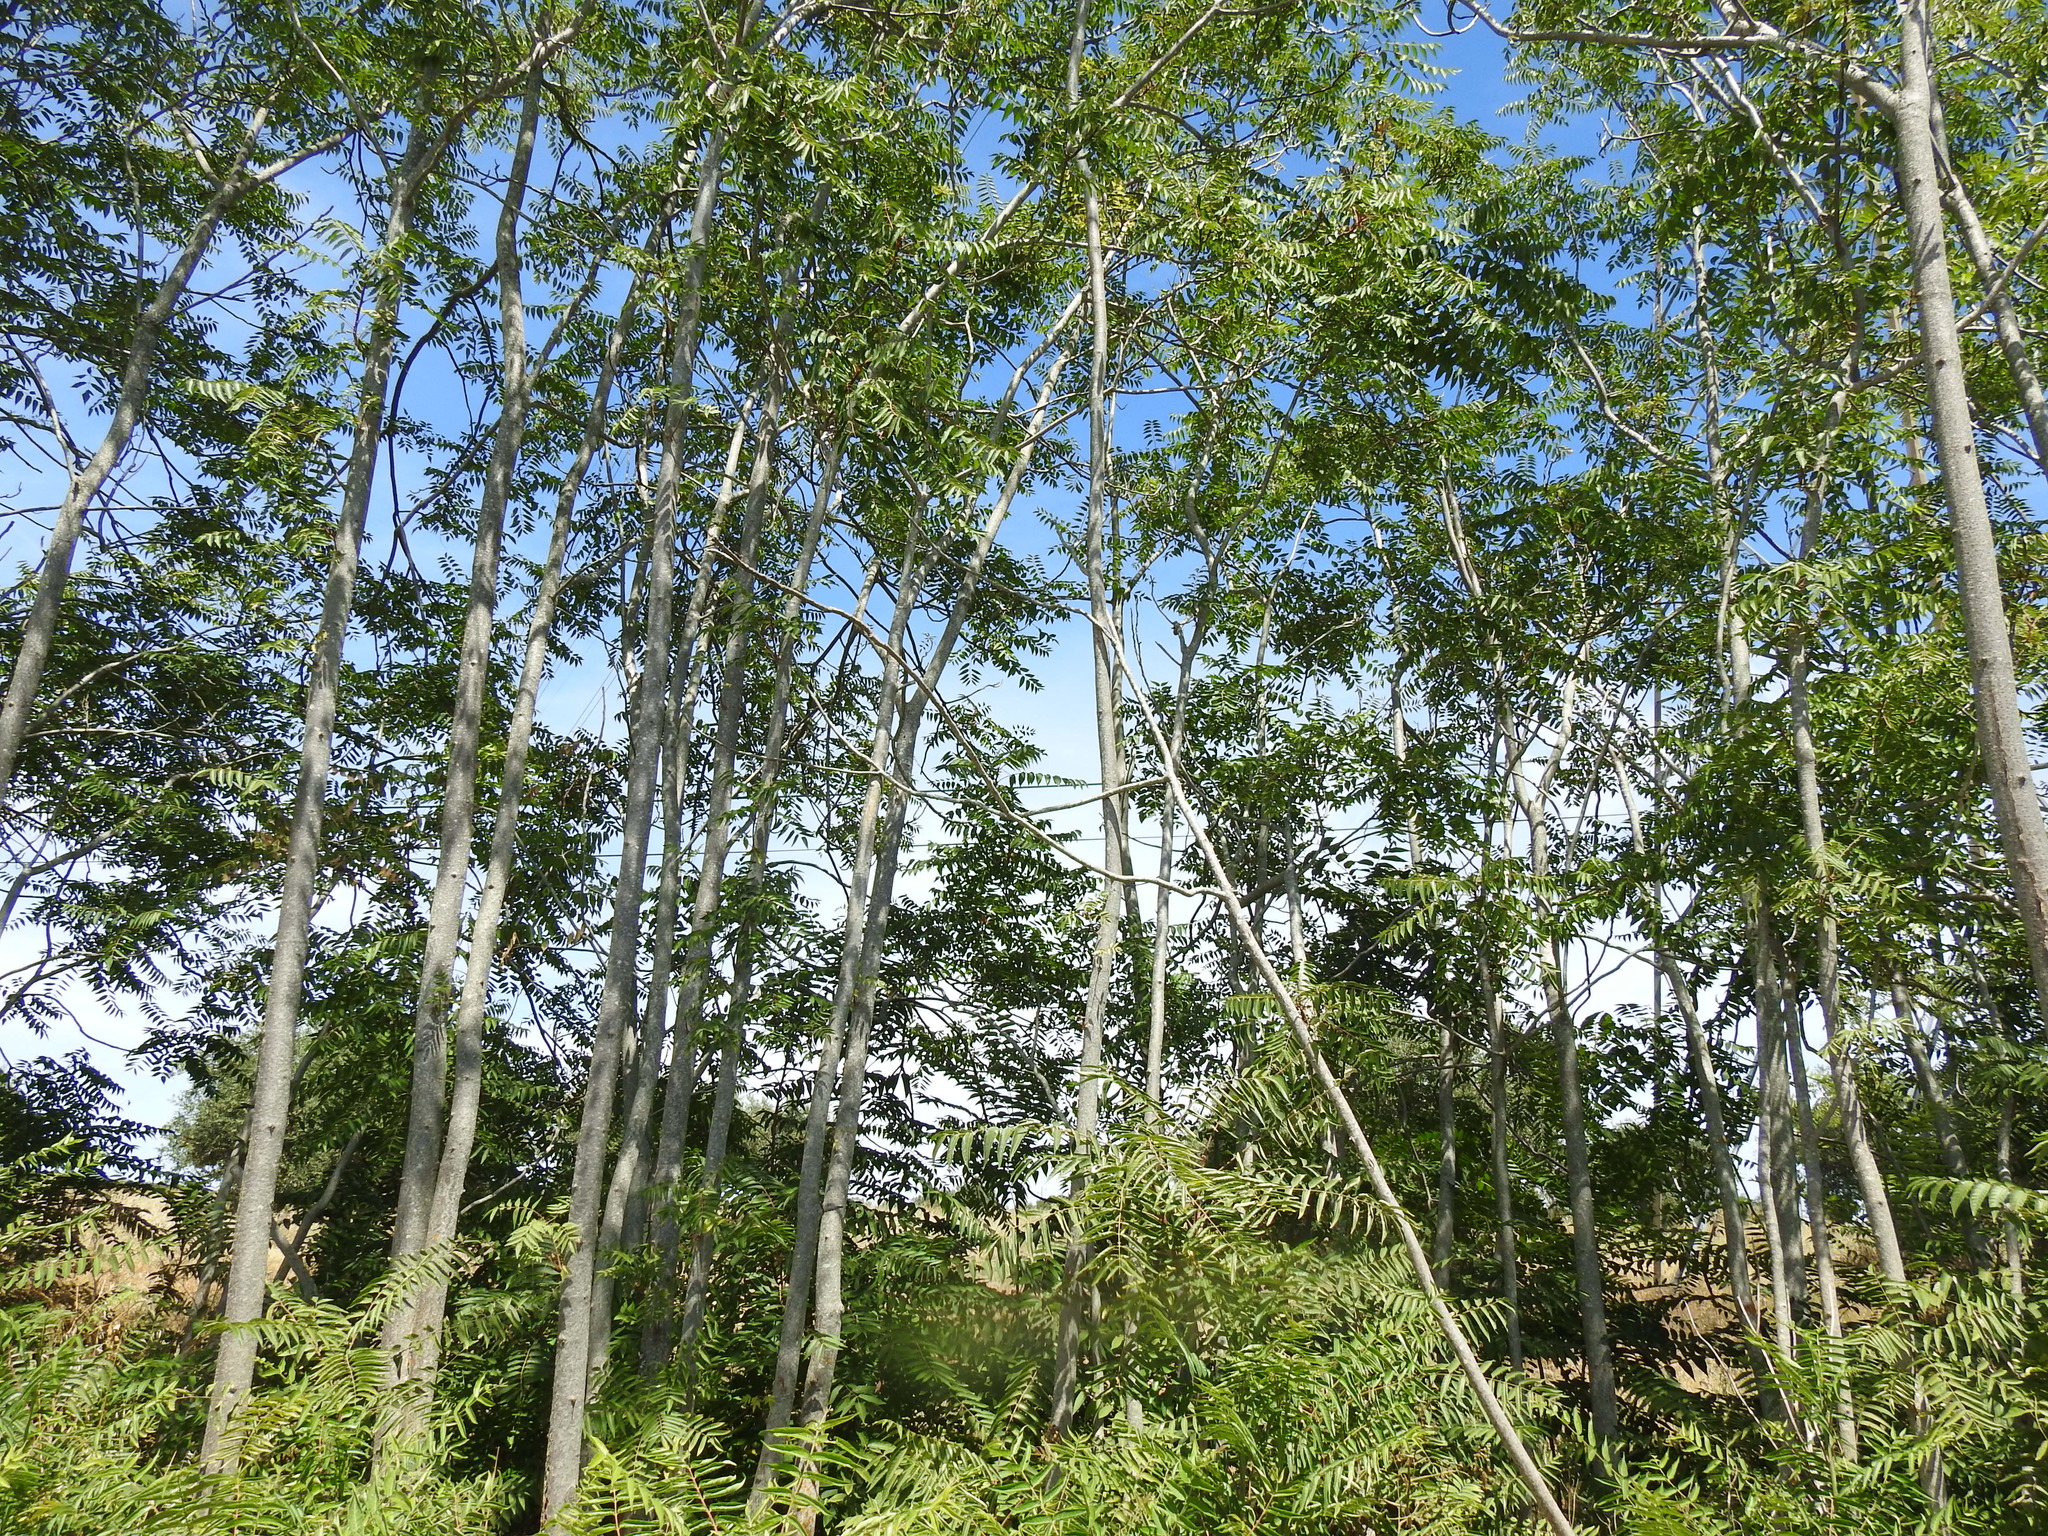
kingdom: Plantae
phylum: Tracheophyta
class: Magnoliopsida
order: Sapindales
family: Simaroubaceae
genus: Ailanthus
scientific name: Ailanthus altissima
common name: Tree-of-heaven
